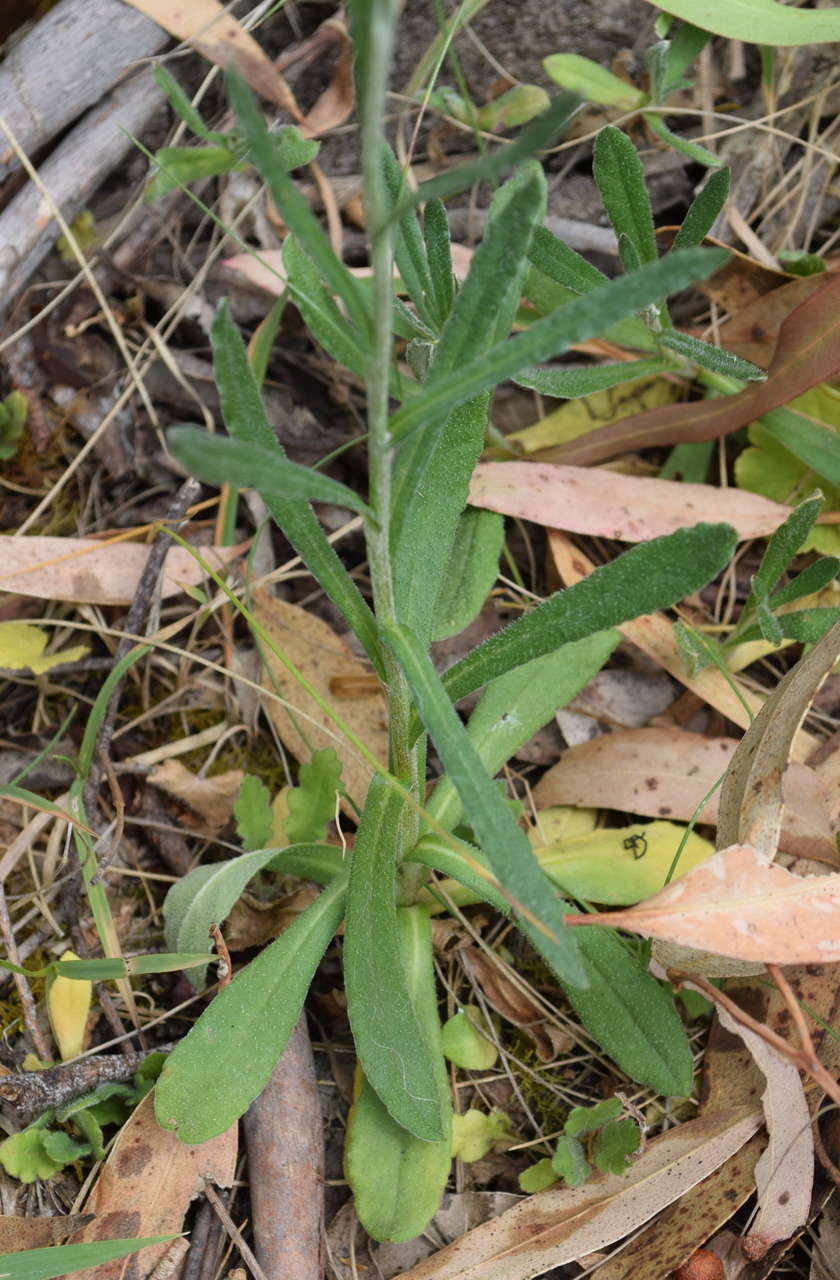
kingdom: Plantae
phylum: Tracheophyta
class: Magnoliopsida
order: Asterales
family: Asteraceae
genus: Coronidium
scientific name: Coronidium scorpioides
